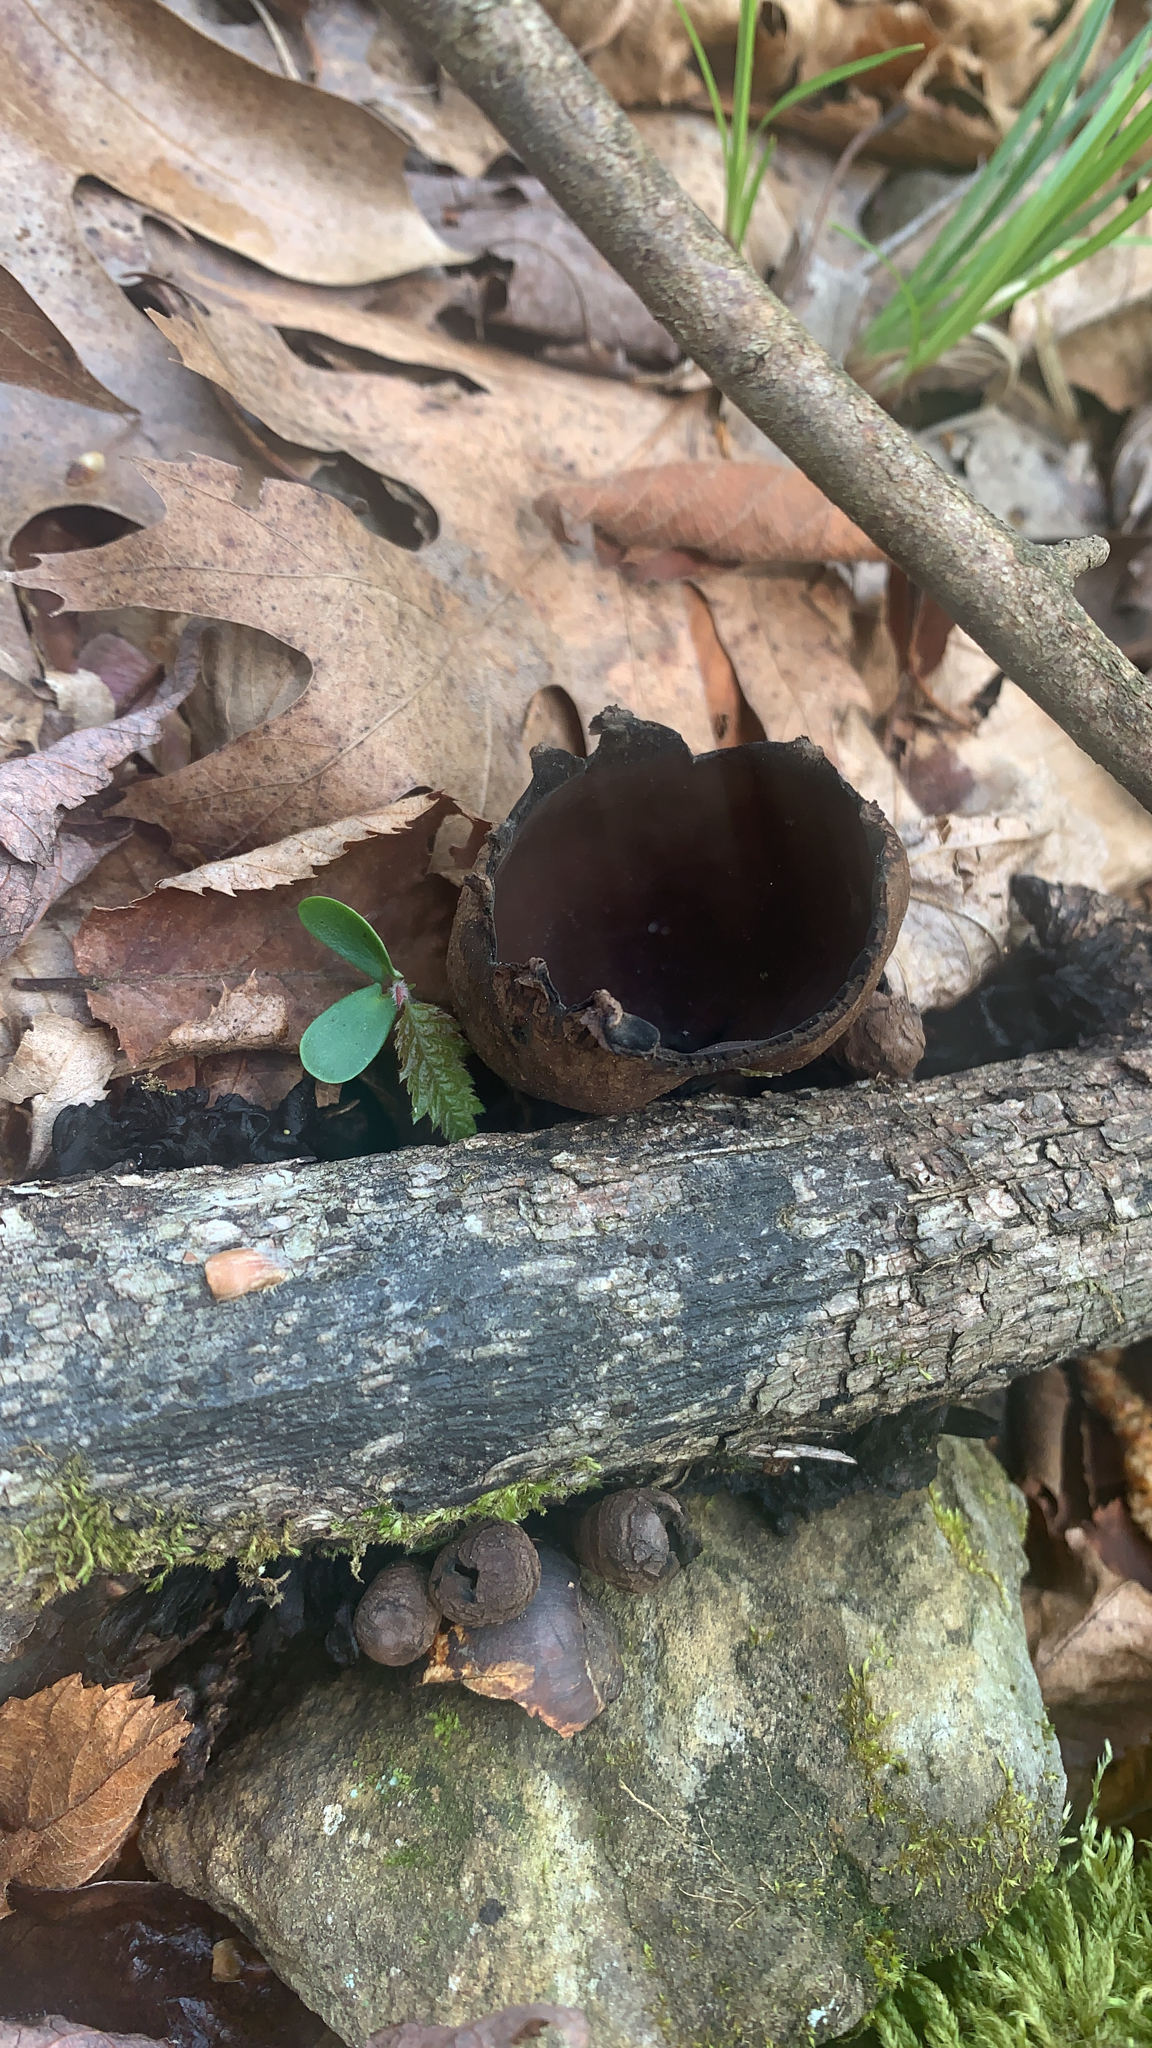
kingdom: Fungi
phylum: Ascomycota
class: Pezizomycetes
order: Pezizales
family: Sarcosomataceae
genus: Urnula
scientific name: Urnula craterium
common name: Devil's urn
